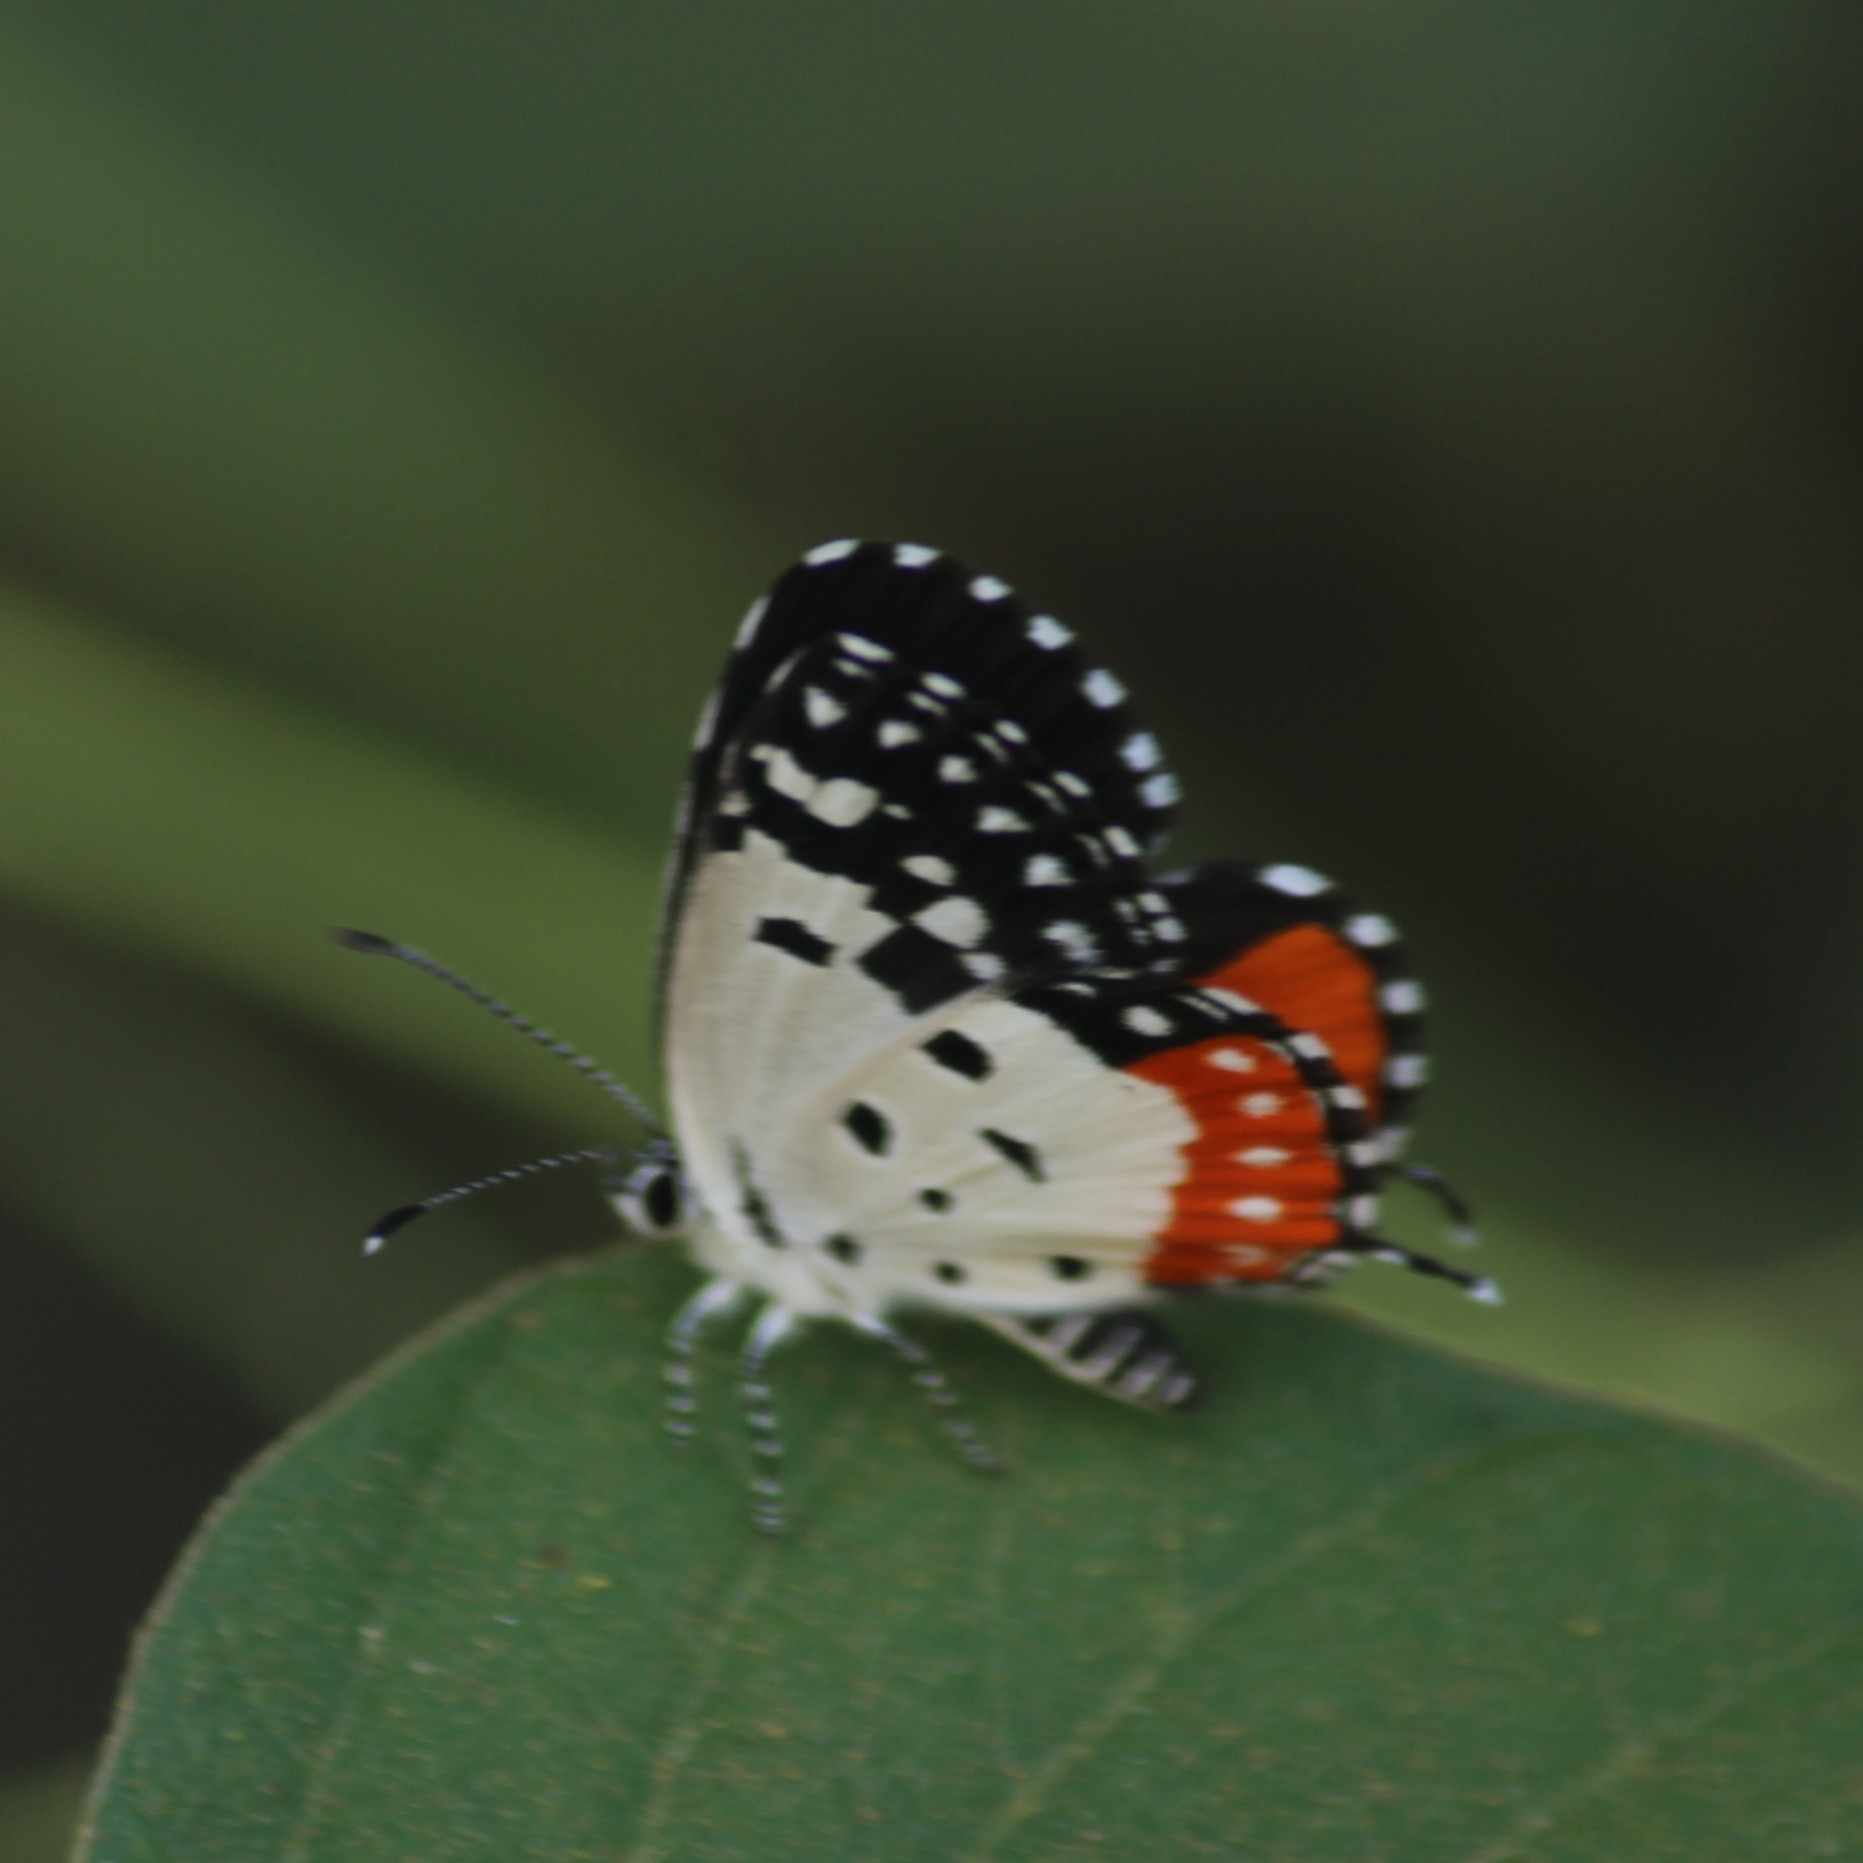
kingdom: Animalia
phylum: Arthropoda
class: Insecta
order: Lepidoptera
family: Lycaenidae
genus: Talicada
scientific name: Talicada nyseus
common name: Red pierrot
